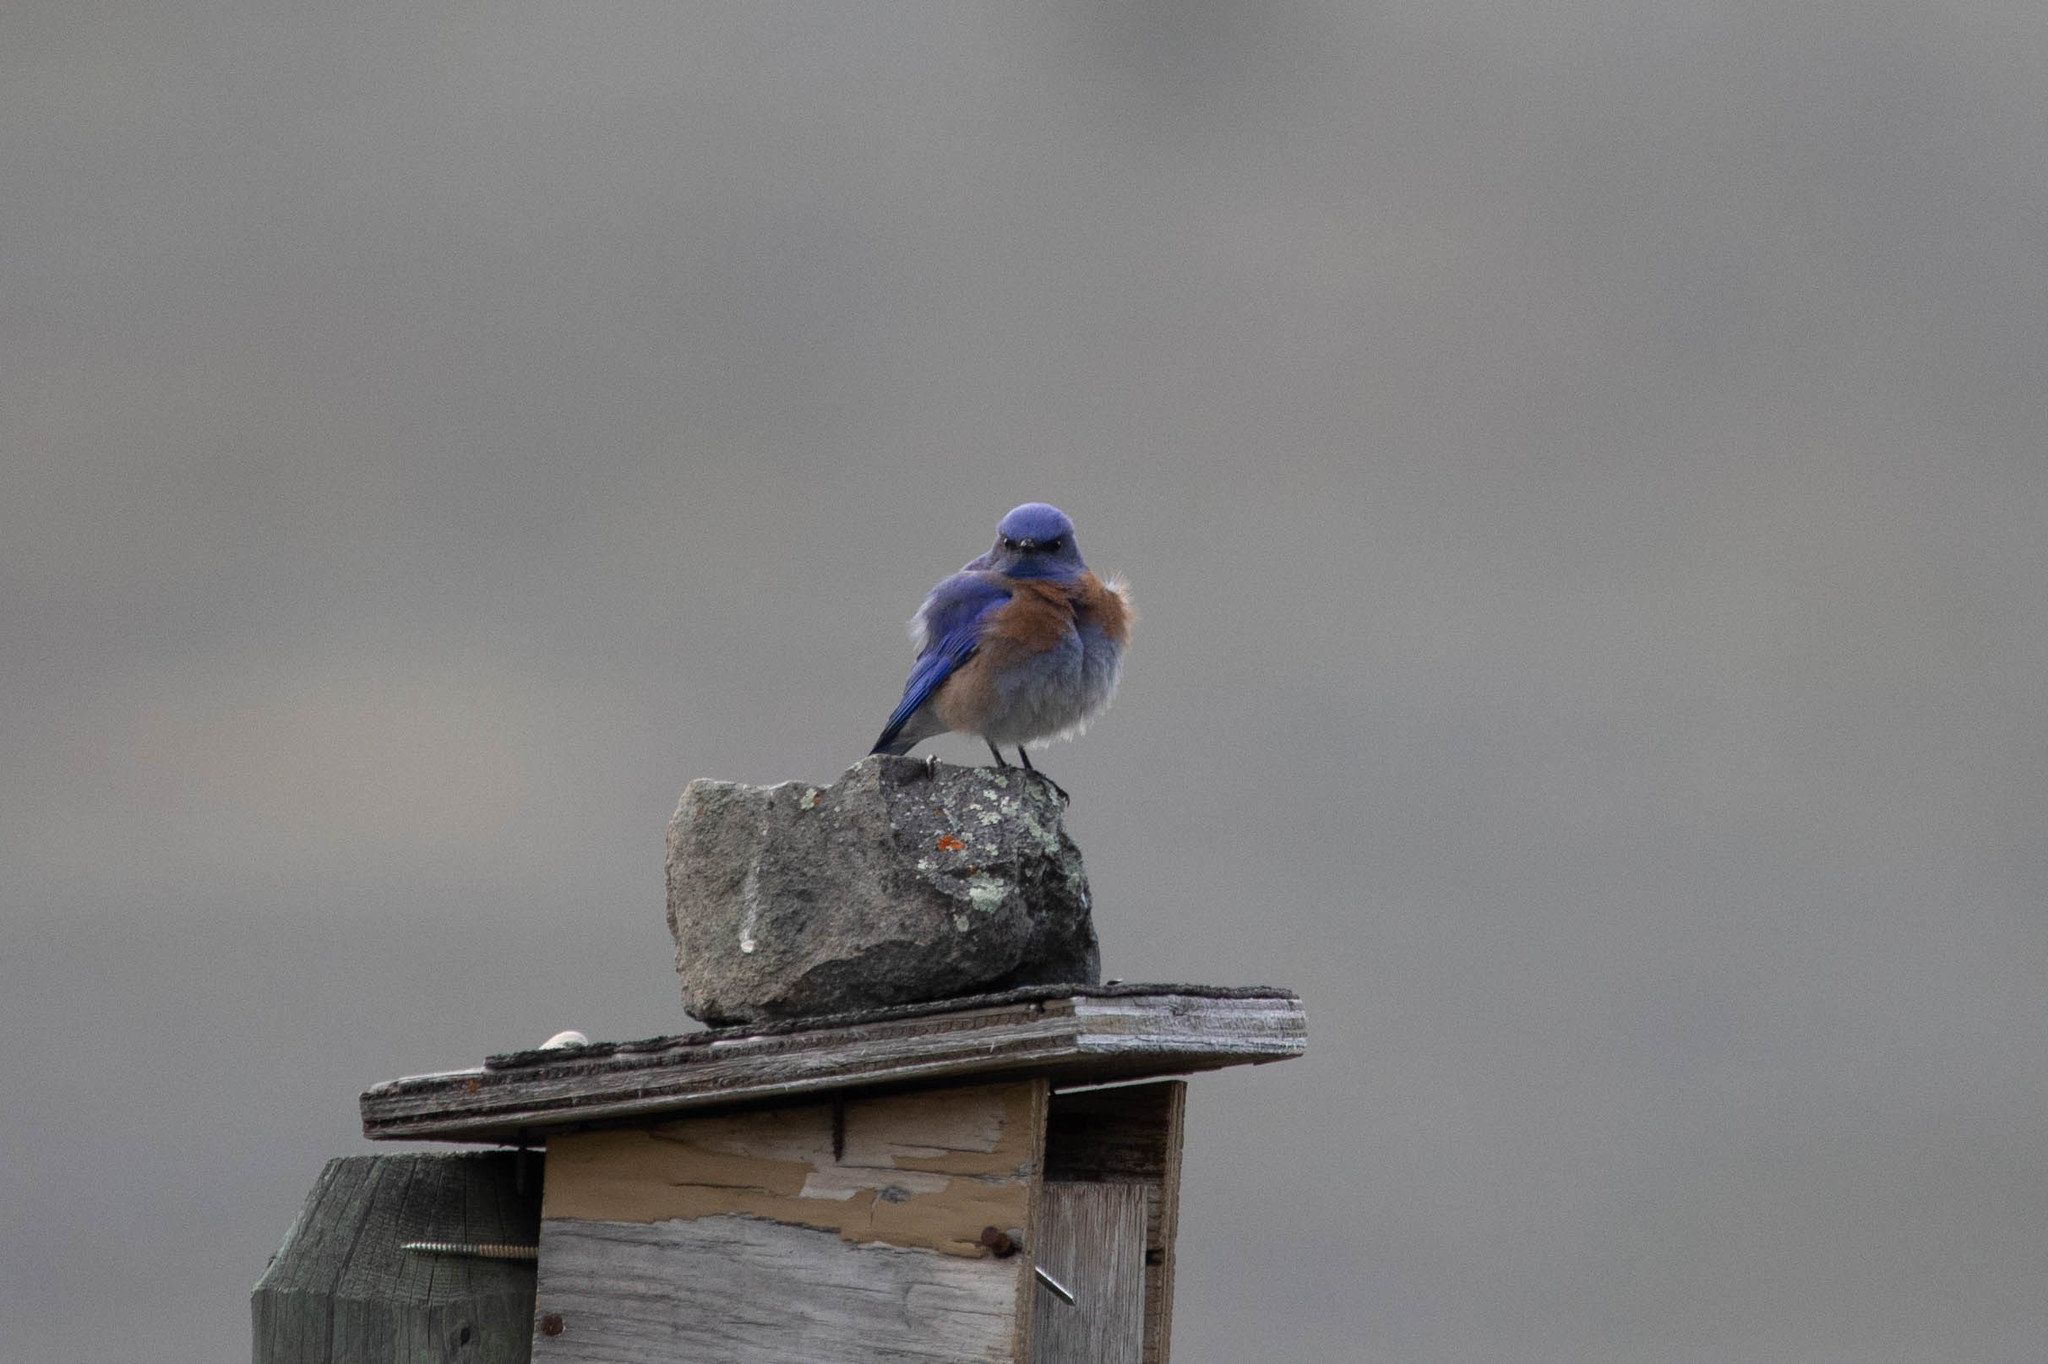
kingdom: Animalia
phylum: Chordata
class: Aves
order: Passeriformes
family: Turdidae
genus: Sialia
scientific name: Sialia mexicana
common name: Western bluebird
